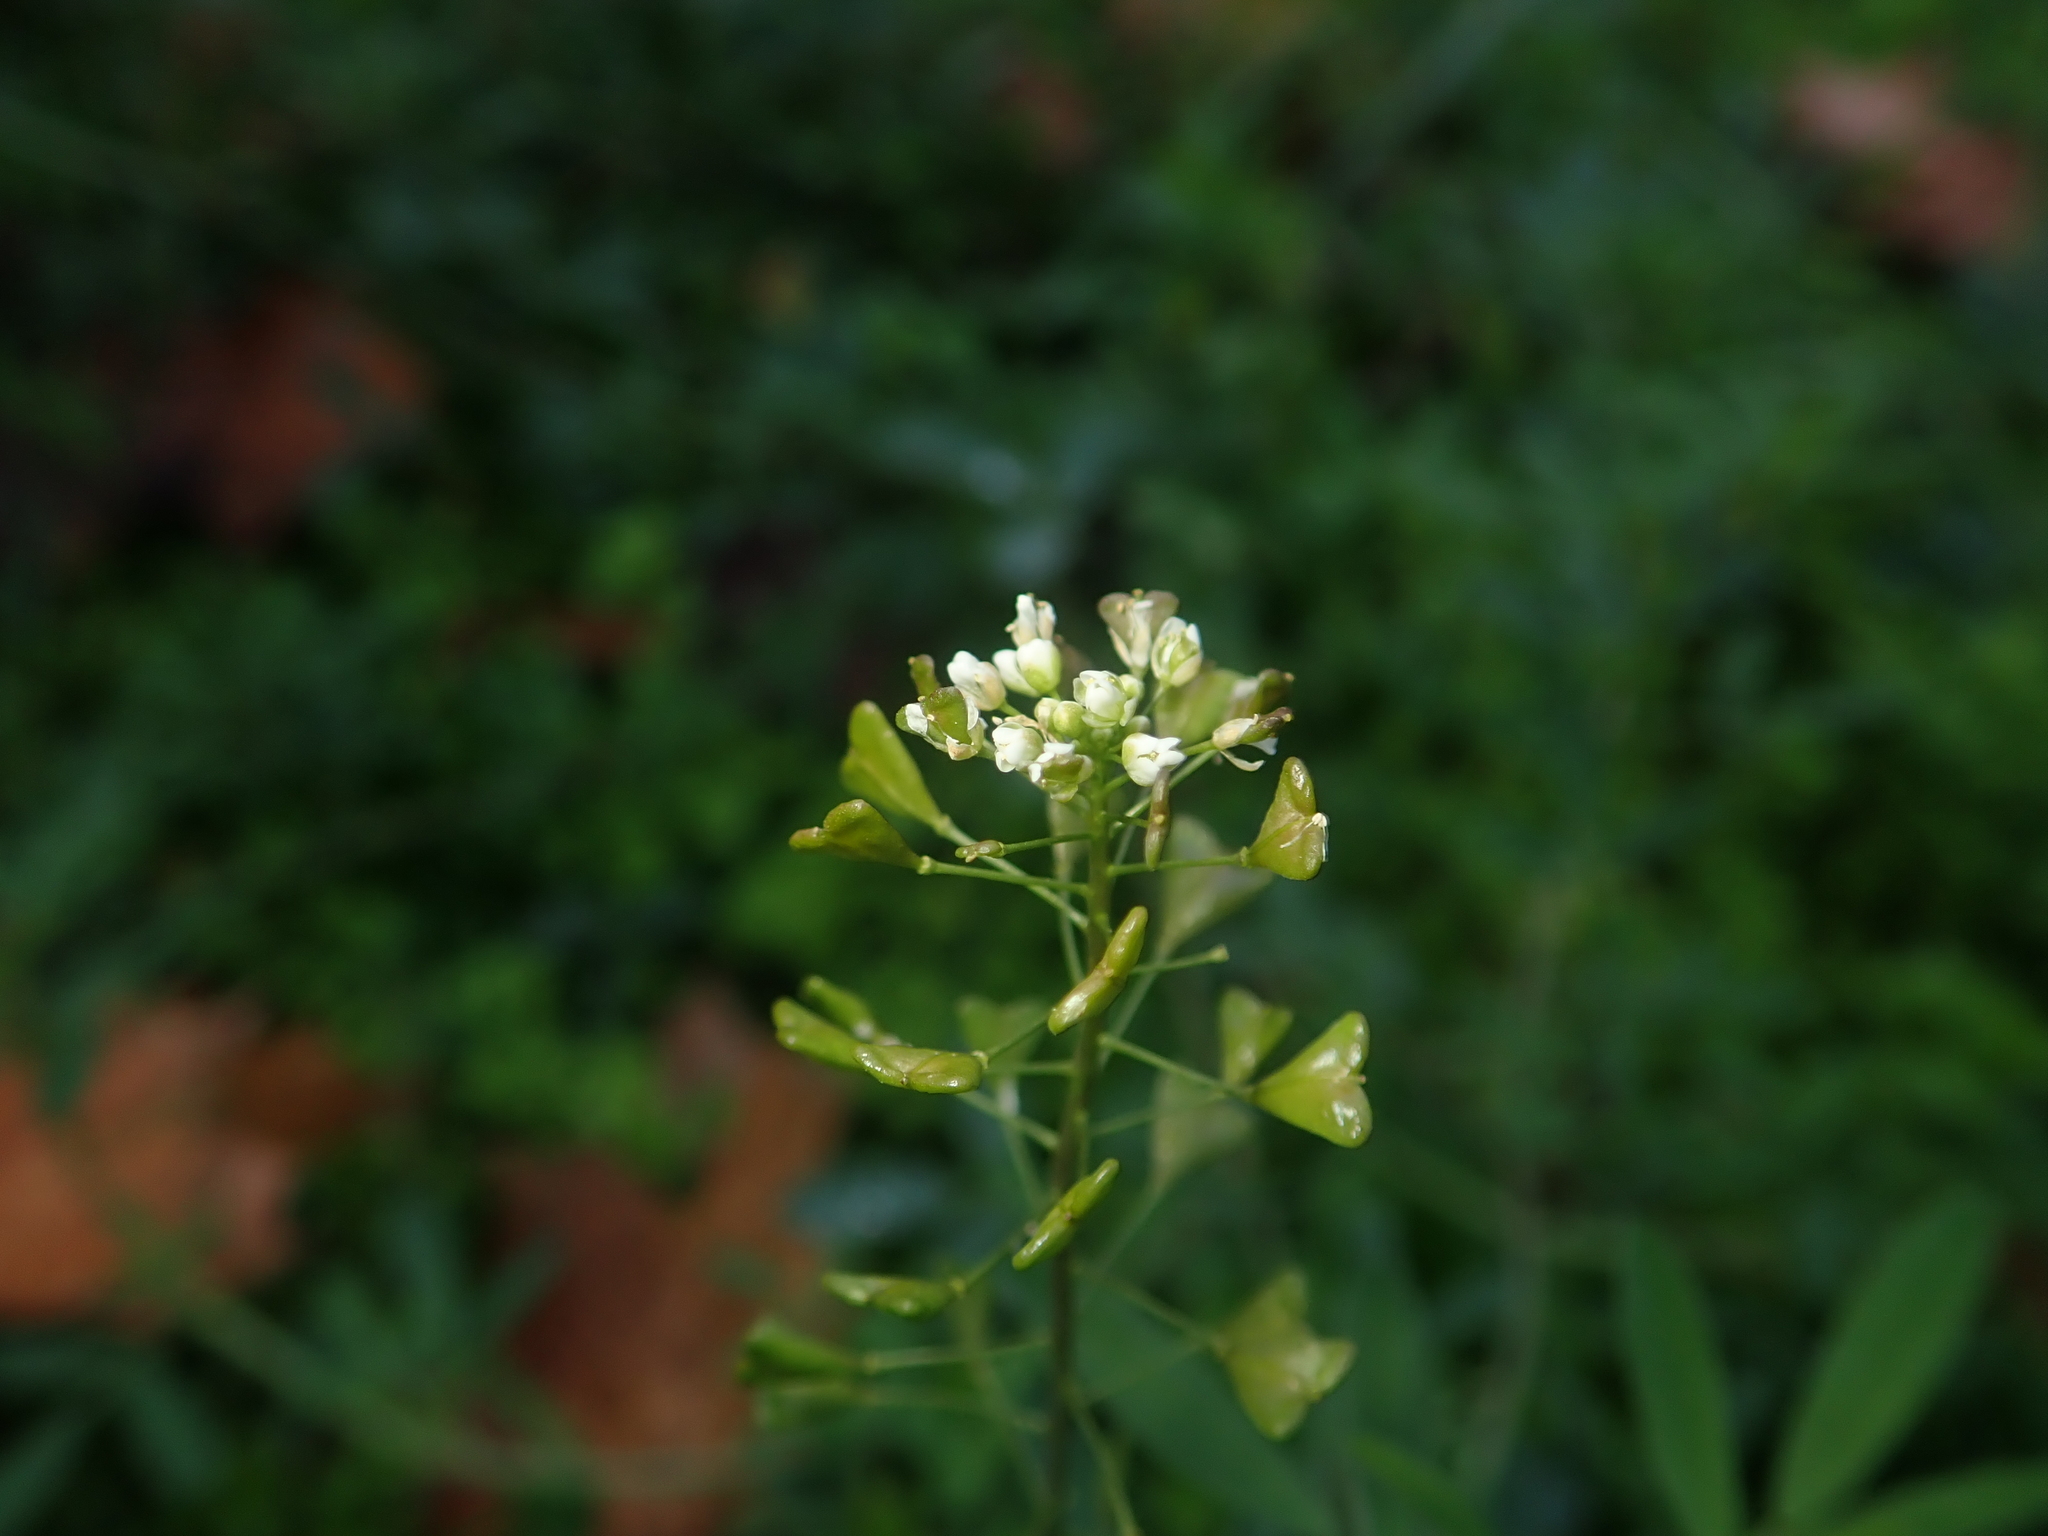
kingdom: Plantae
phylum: Tracheophyta
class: Magnoliopsida
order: Brassicales
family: Brassicaceae
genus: Capsella
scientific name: Capsella bursa-pastoris
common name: Shepherd's purse
